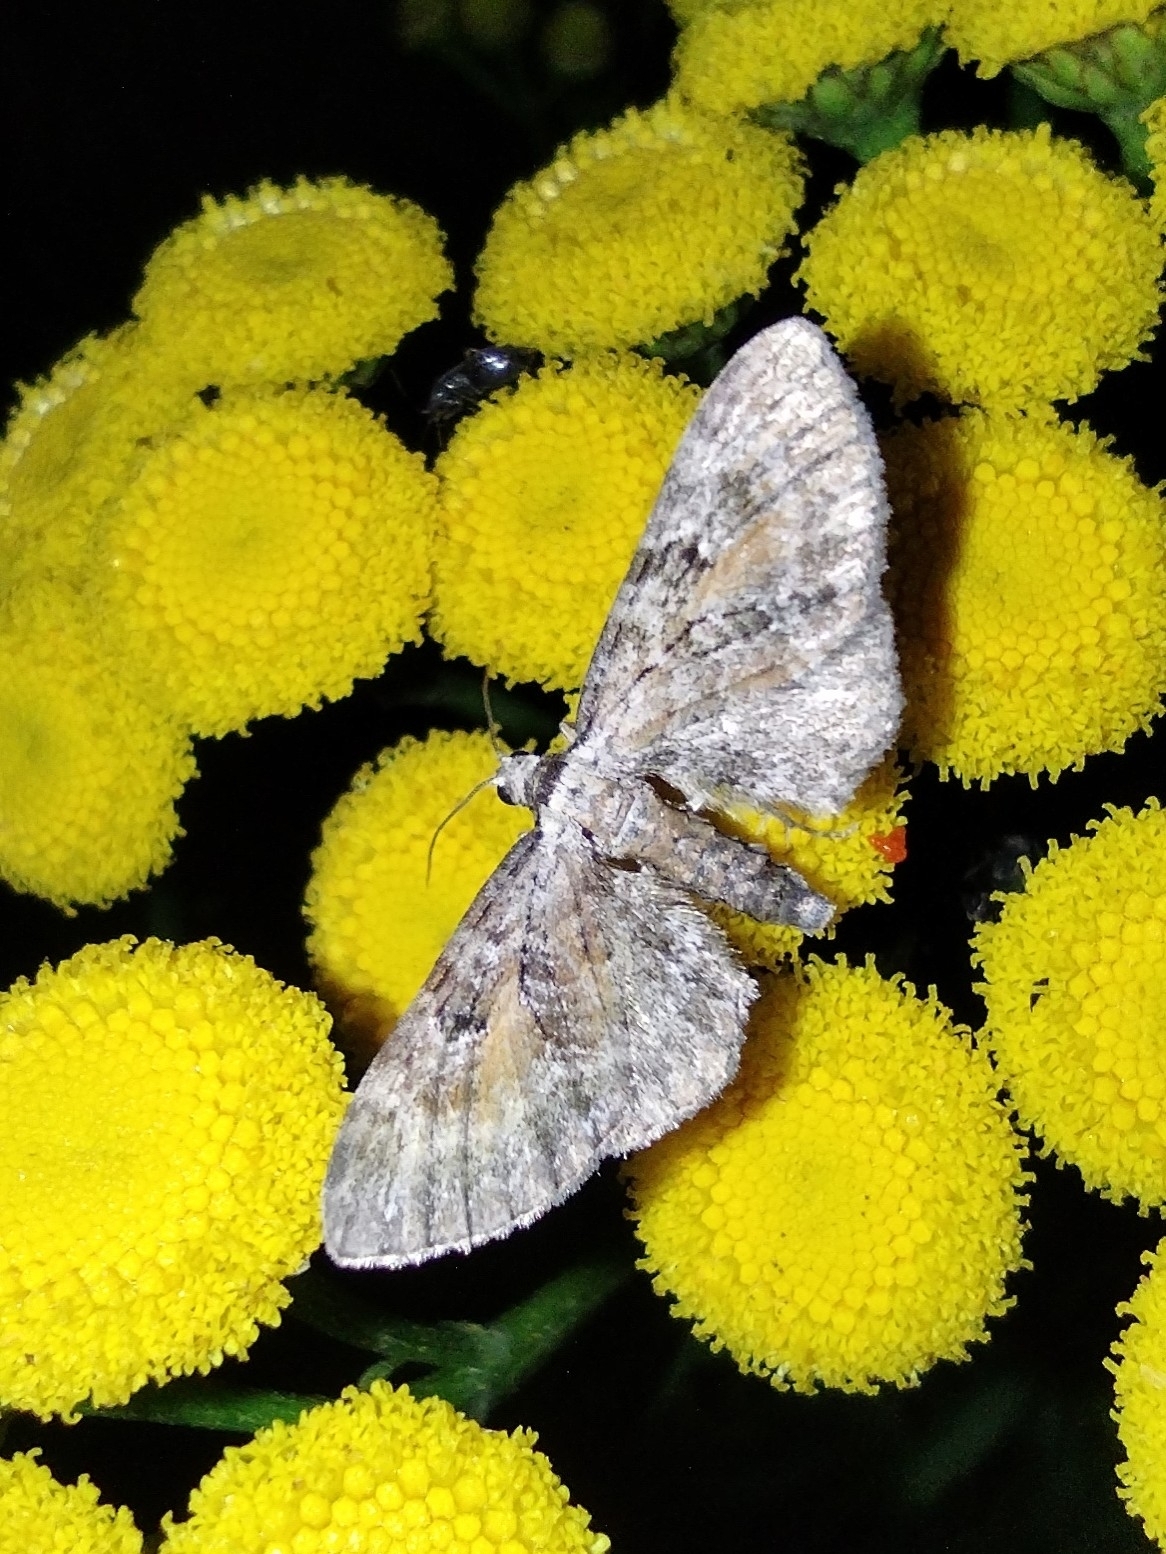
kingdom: Animalia
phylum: Arthropoda
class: Insecta
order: Lepidoptera
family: Geometridae
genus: Eupithecia
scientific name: Eupithecia icterata
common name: Tawny speckled pug
